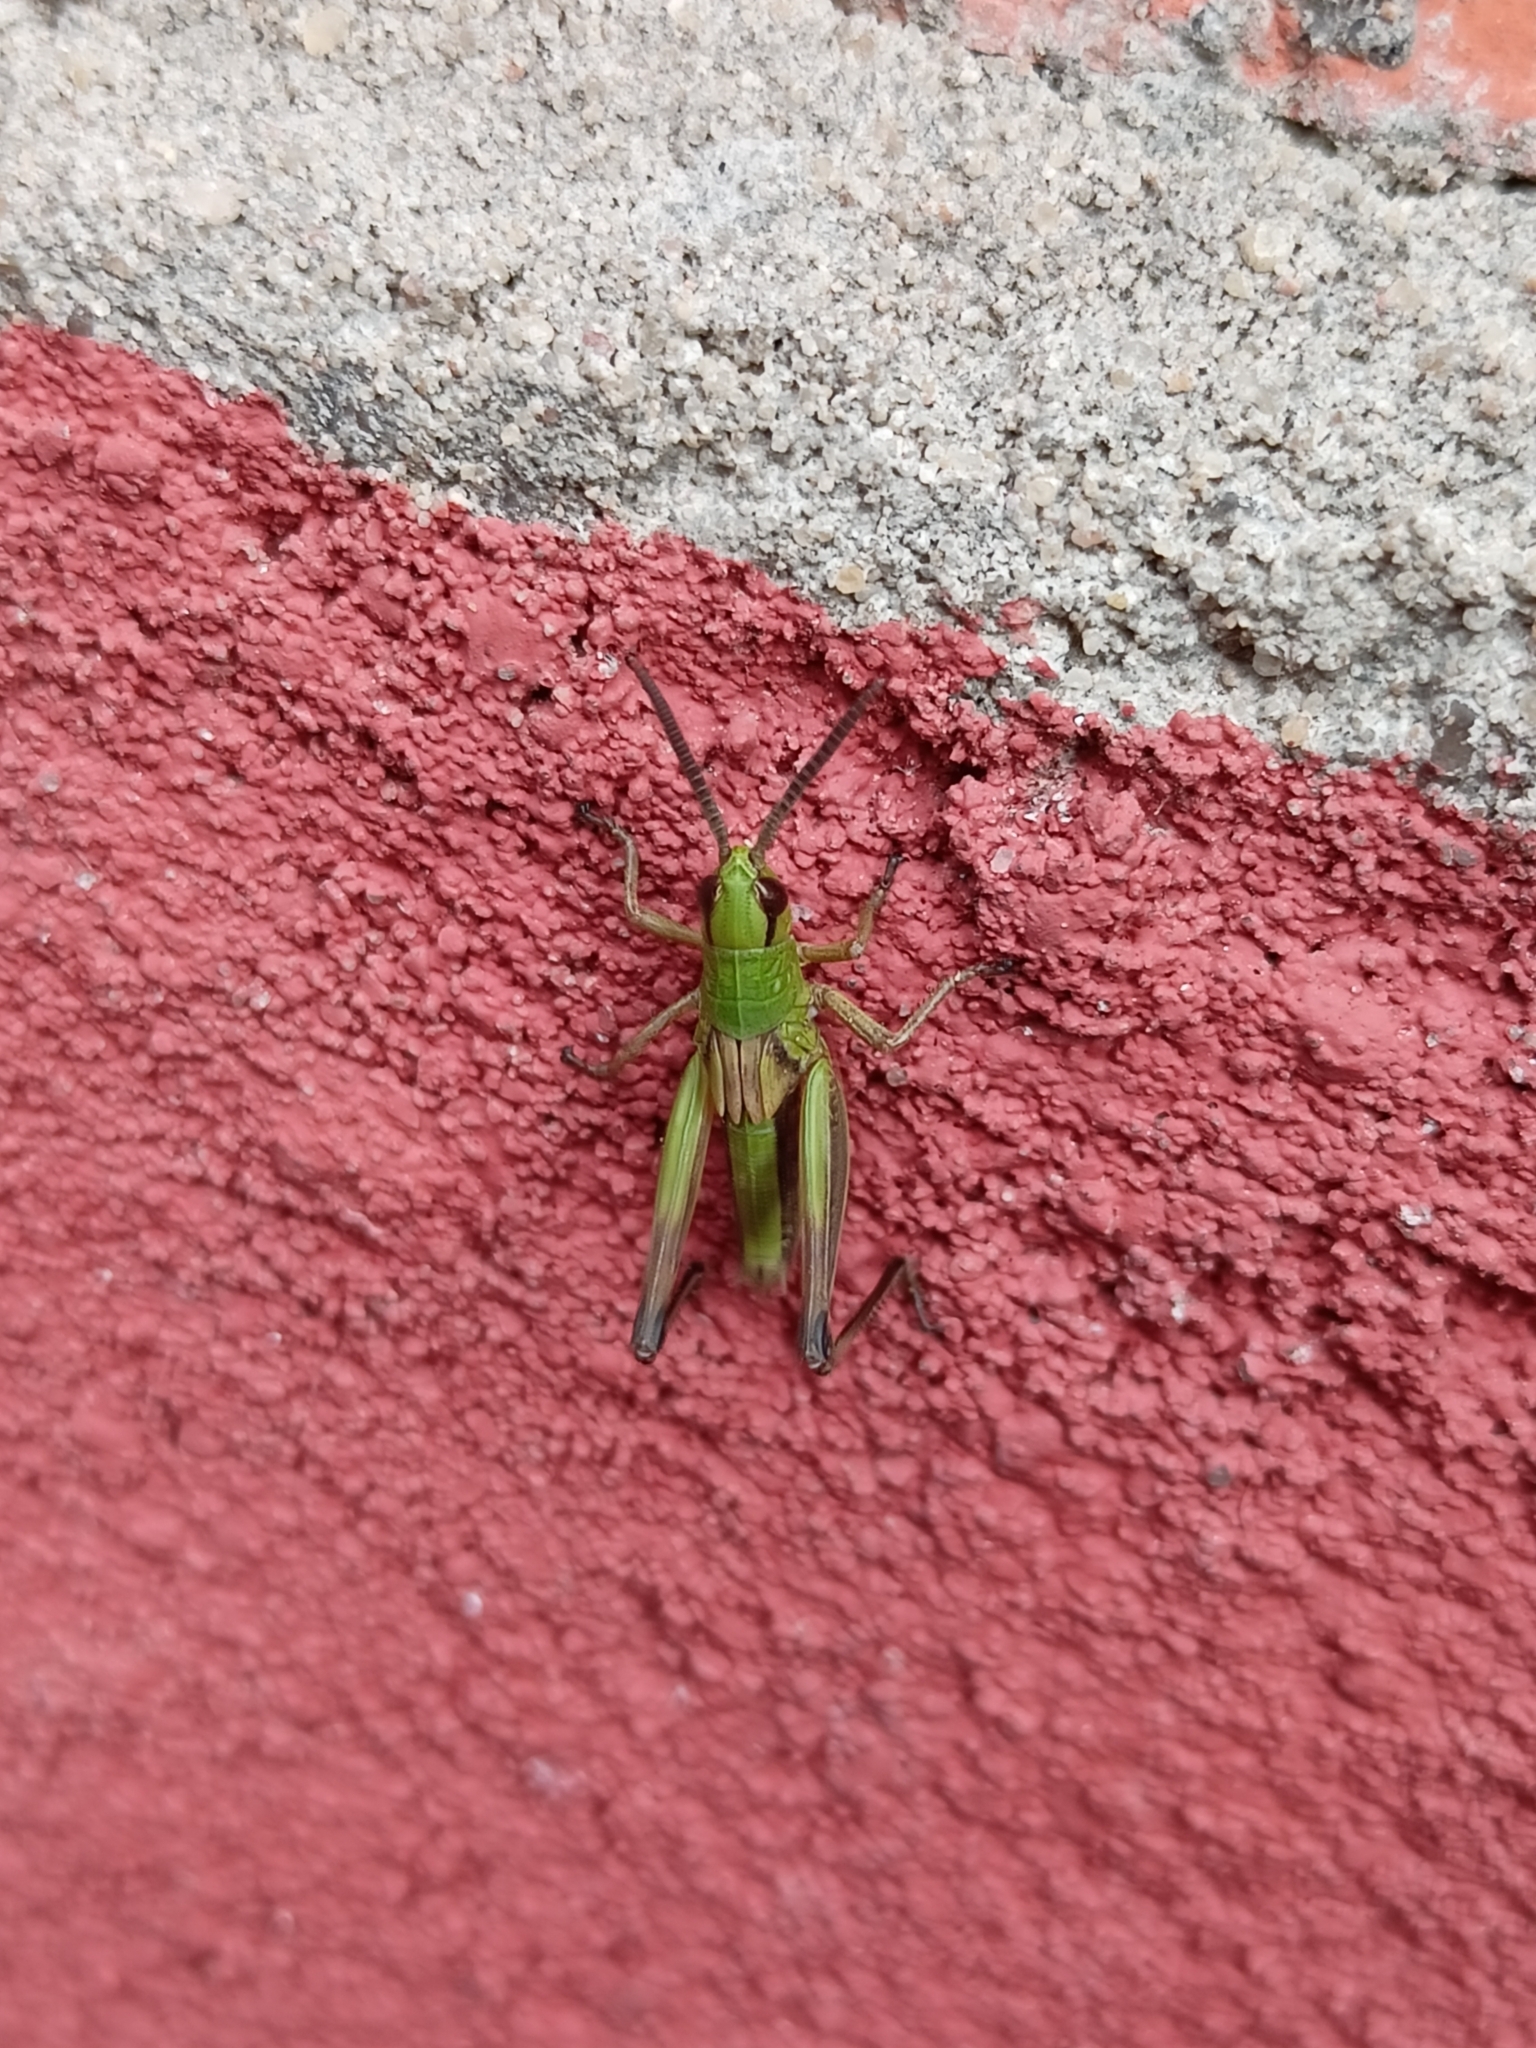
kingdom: Animalia
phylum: Arthropoda
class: Insecta
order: Orthoptera
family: Acrididae
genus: Pseudochorthippus
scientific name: Pseudochorthippus parallelus
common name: Meadow grasshopper
